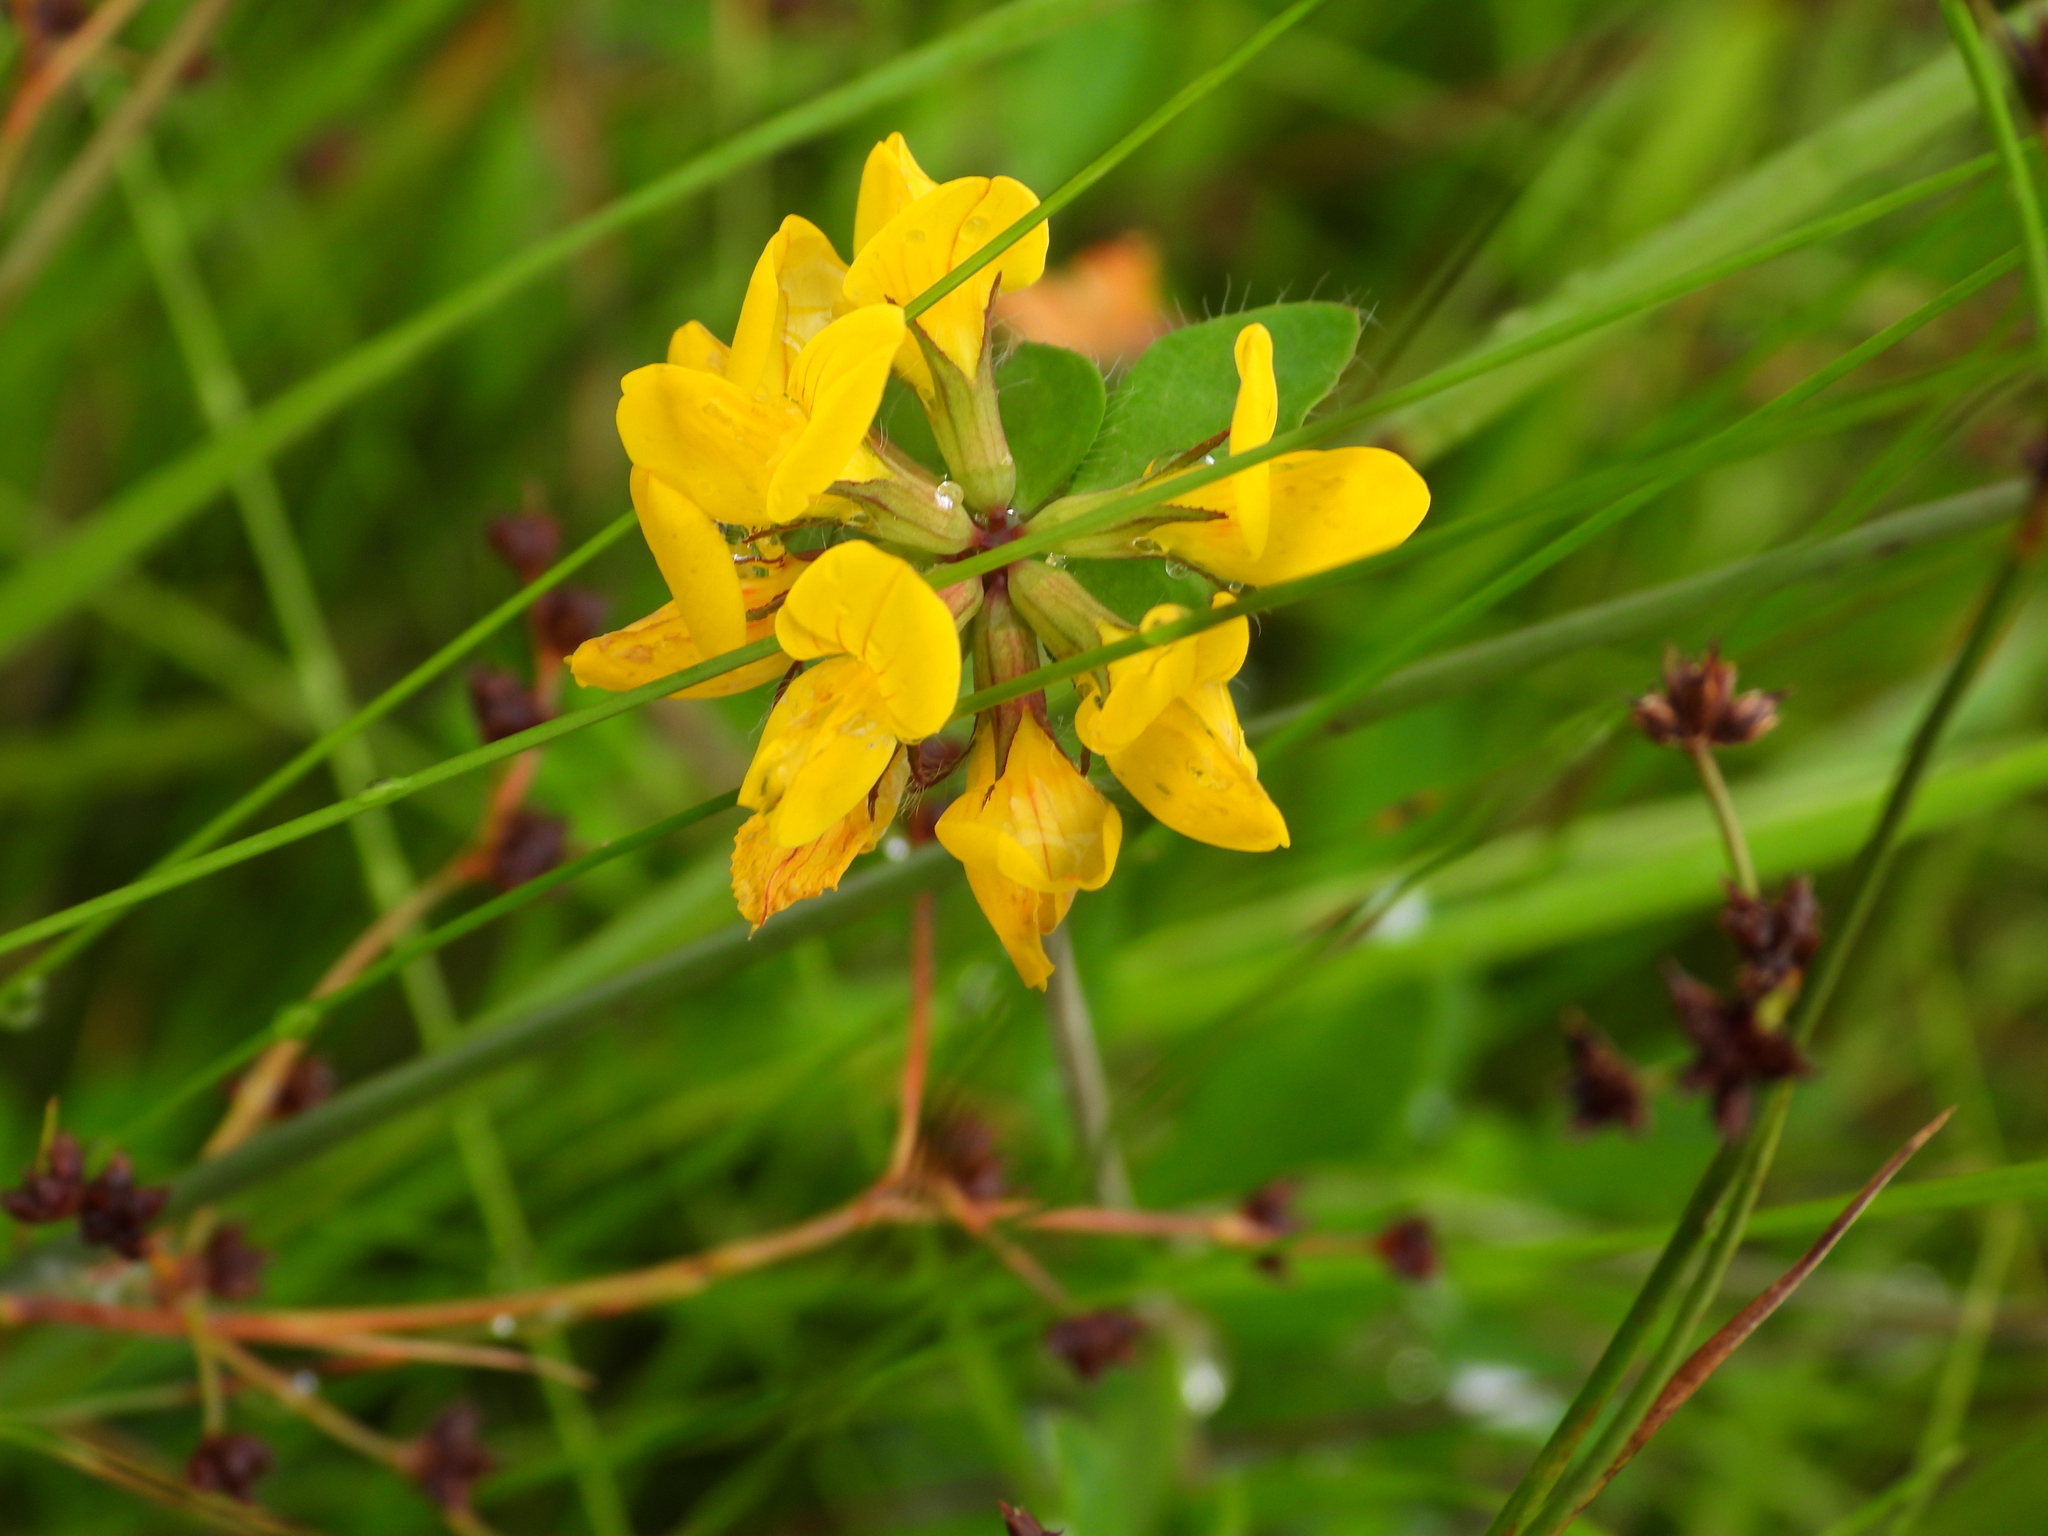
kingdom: Plantae
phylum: Tracheophyta
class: Magnoliopsida
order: Fabales
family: Fabaceae
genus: Lotus
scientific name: Lotus pedunculatus
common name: Greater birdsfoot-trefoil
